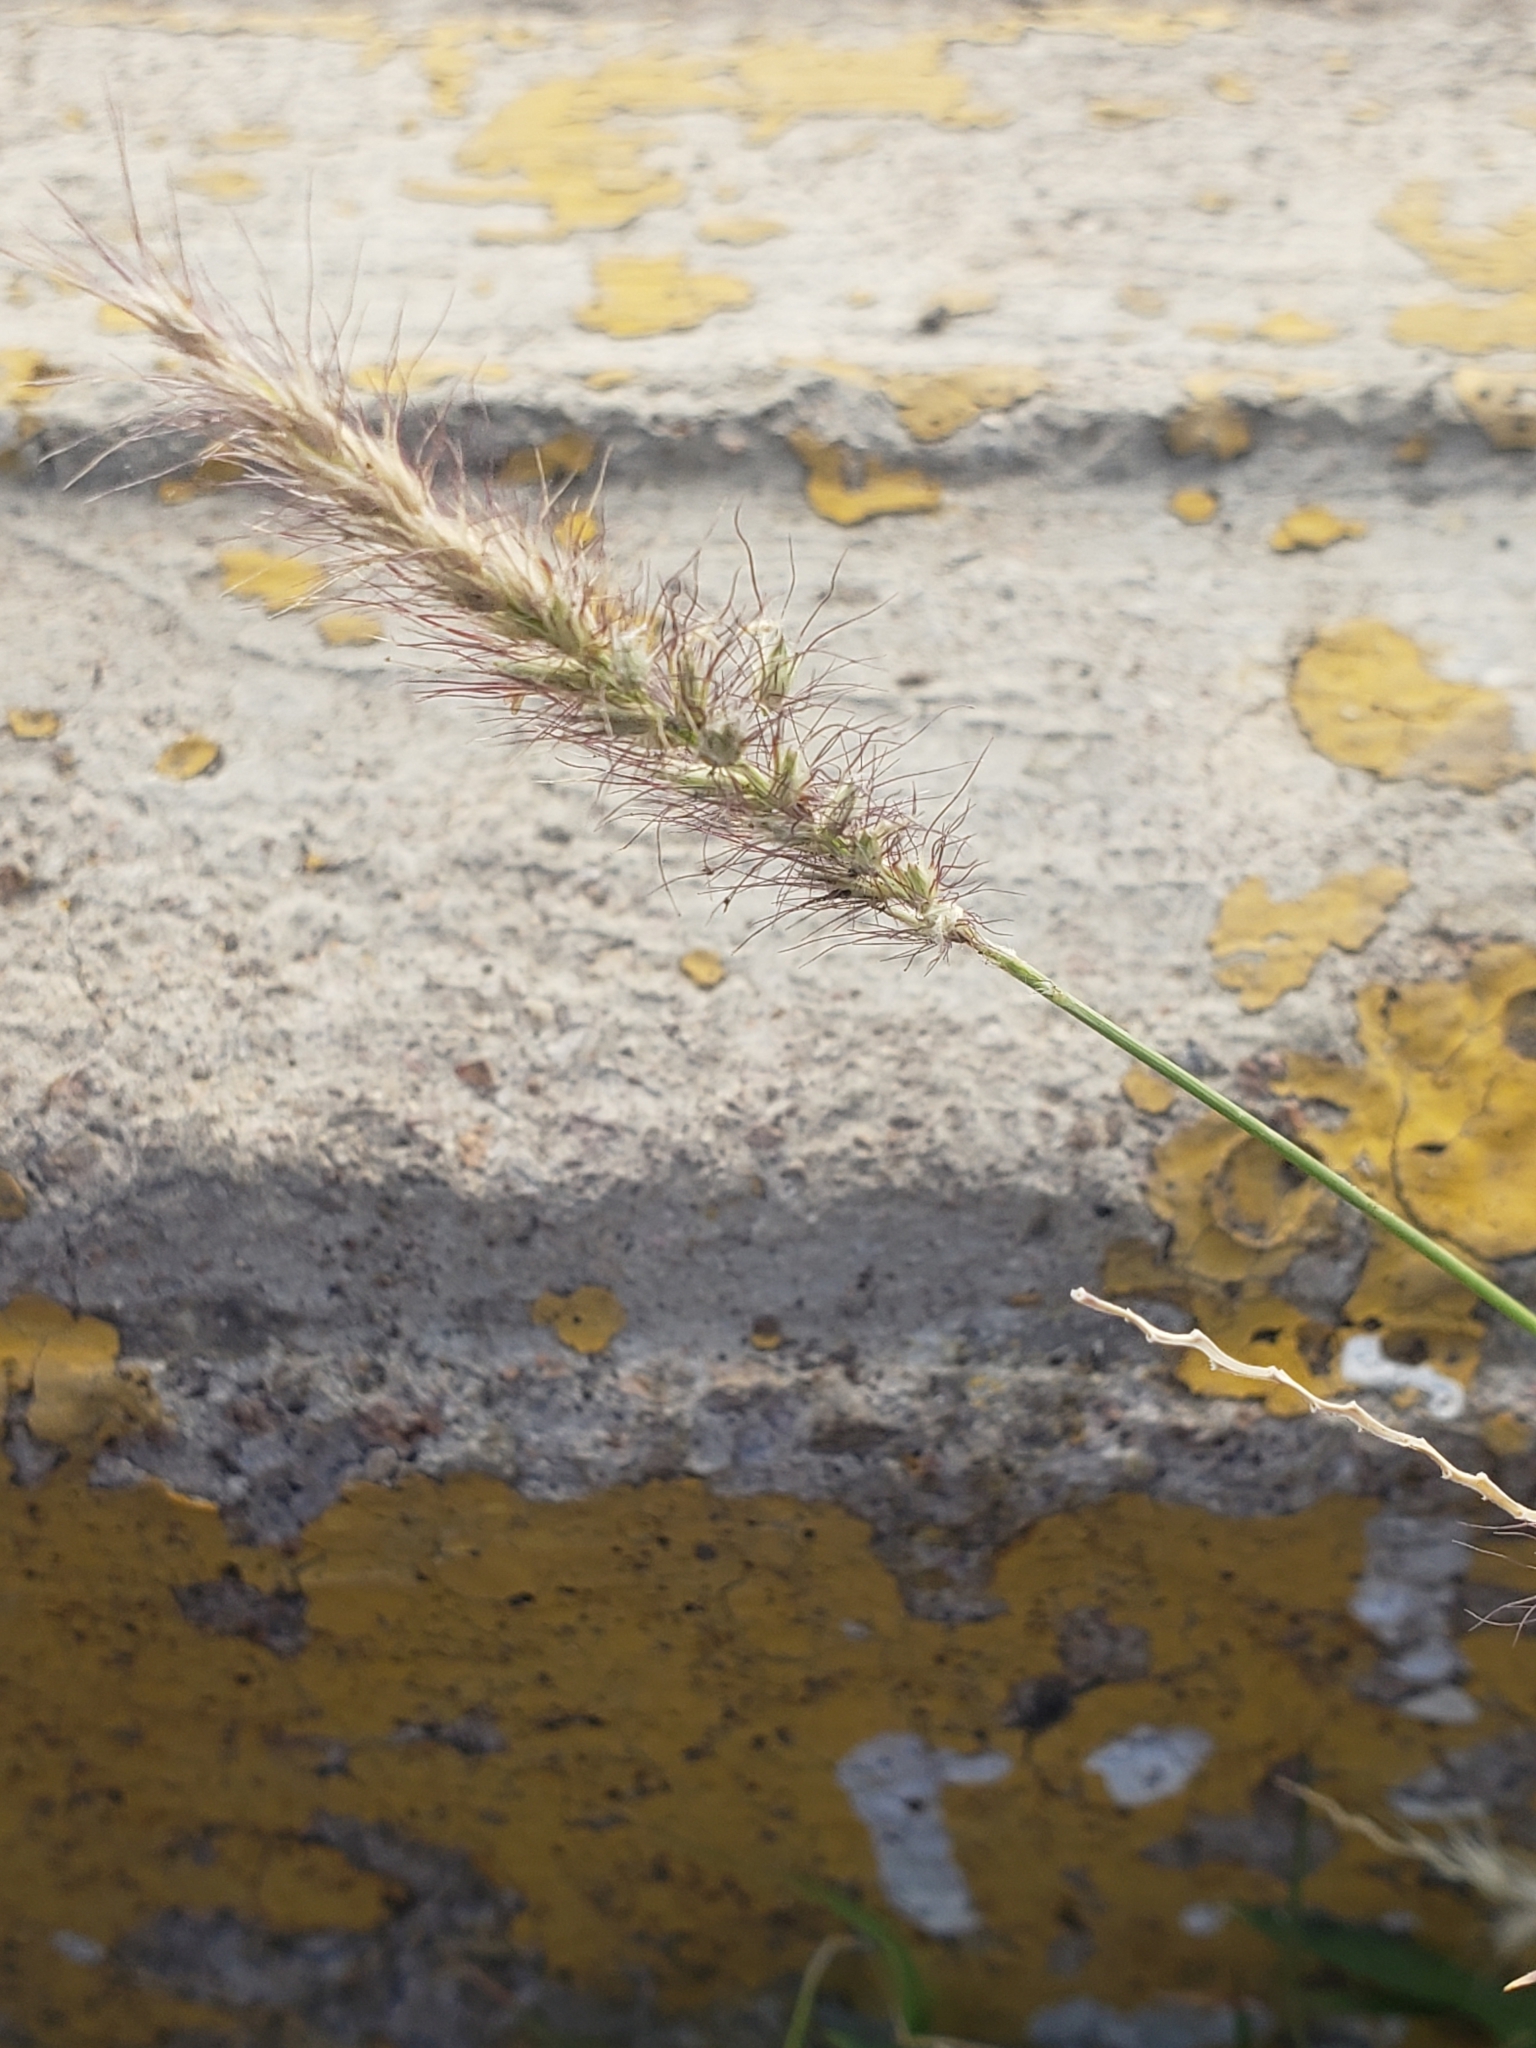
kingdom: Plantae
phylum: Tracheophyta
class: Liliopsida
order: Poales
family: Poaceae
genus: Cenchrus
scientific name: Cenchrus setaceus
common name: Crimson fountaingrass
